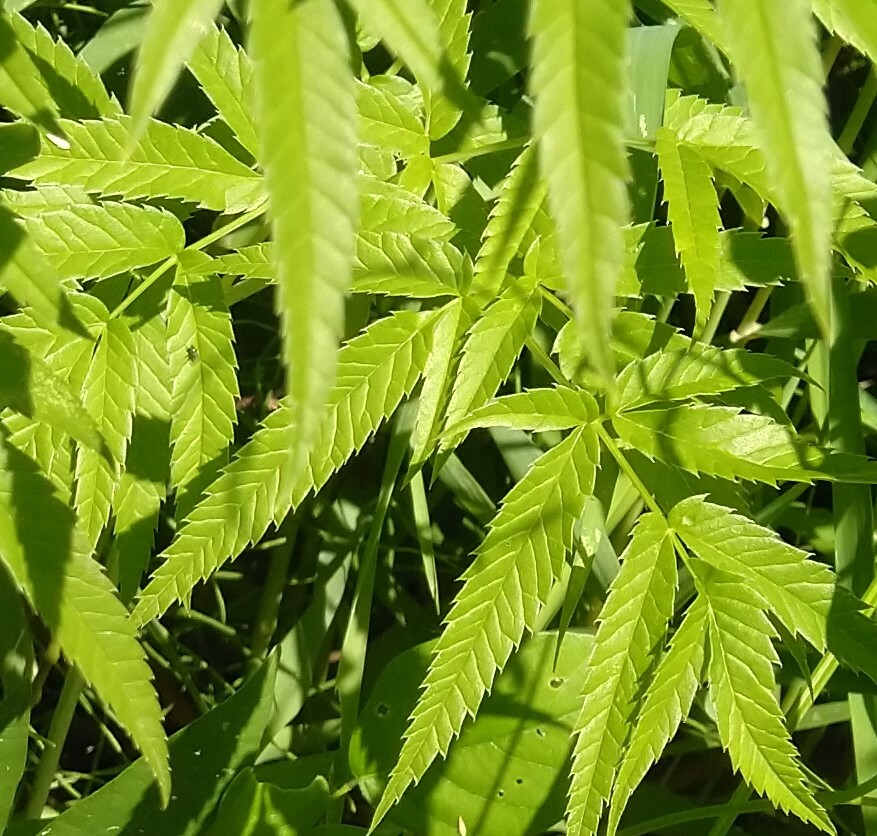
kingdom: Plantae
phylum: Tracheophyta
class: Magnoliopsida
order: Apiales
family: Apiaceae
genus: Cicuta
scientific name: Cicuta maculata
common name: Spotted cowbane
